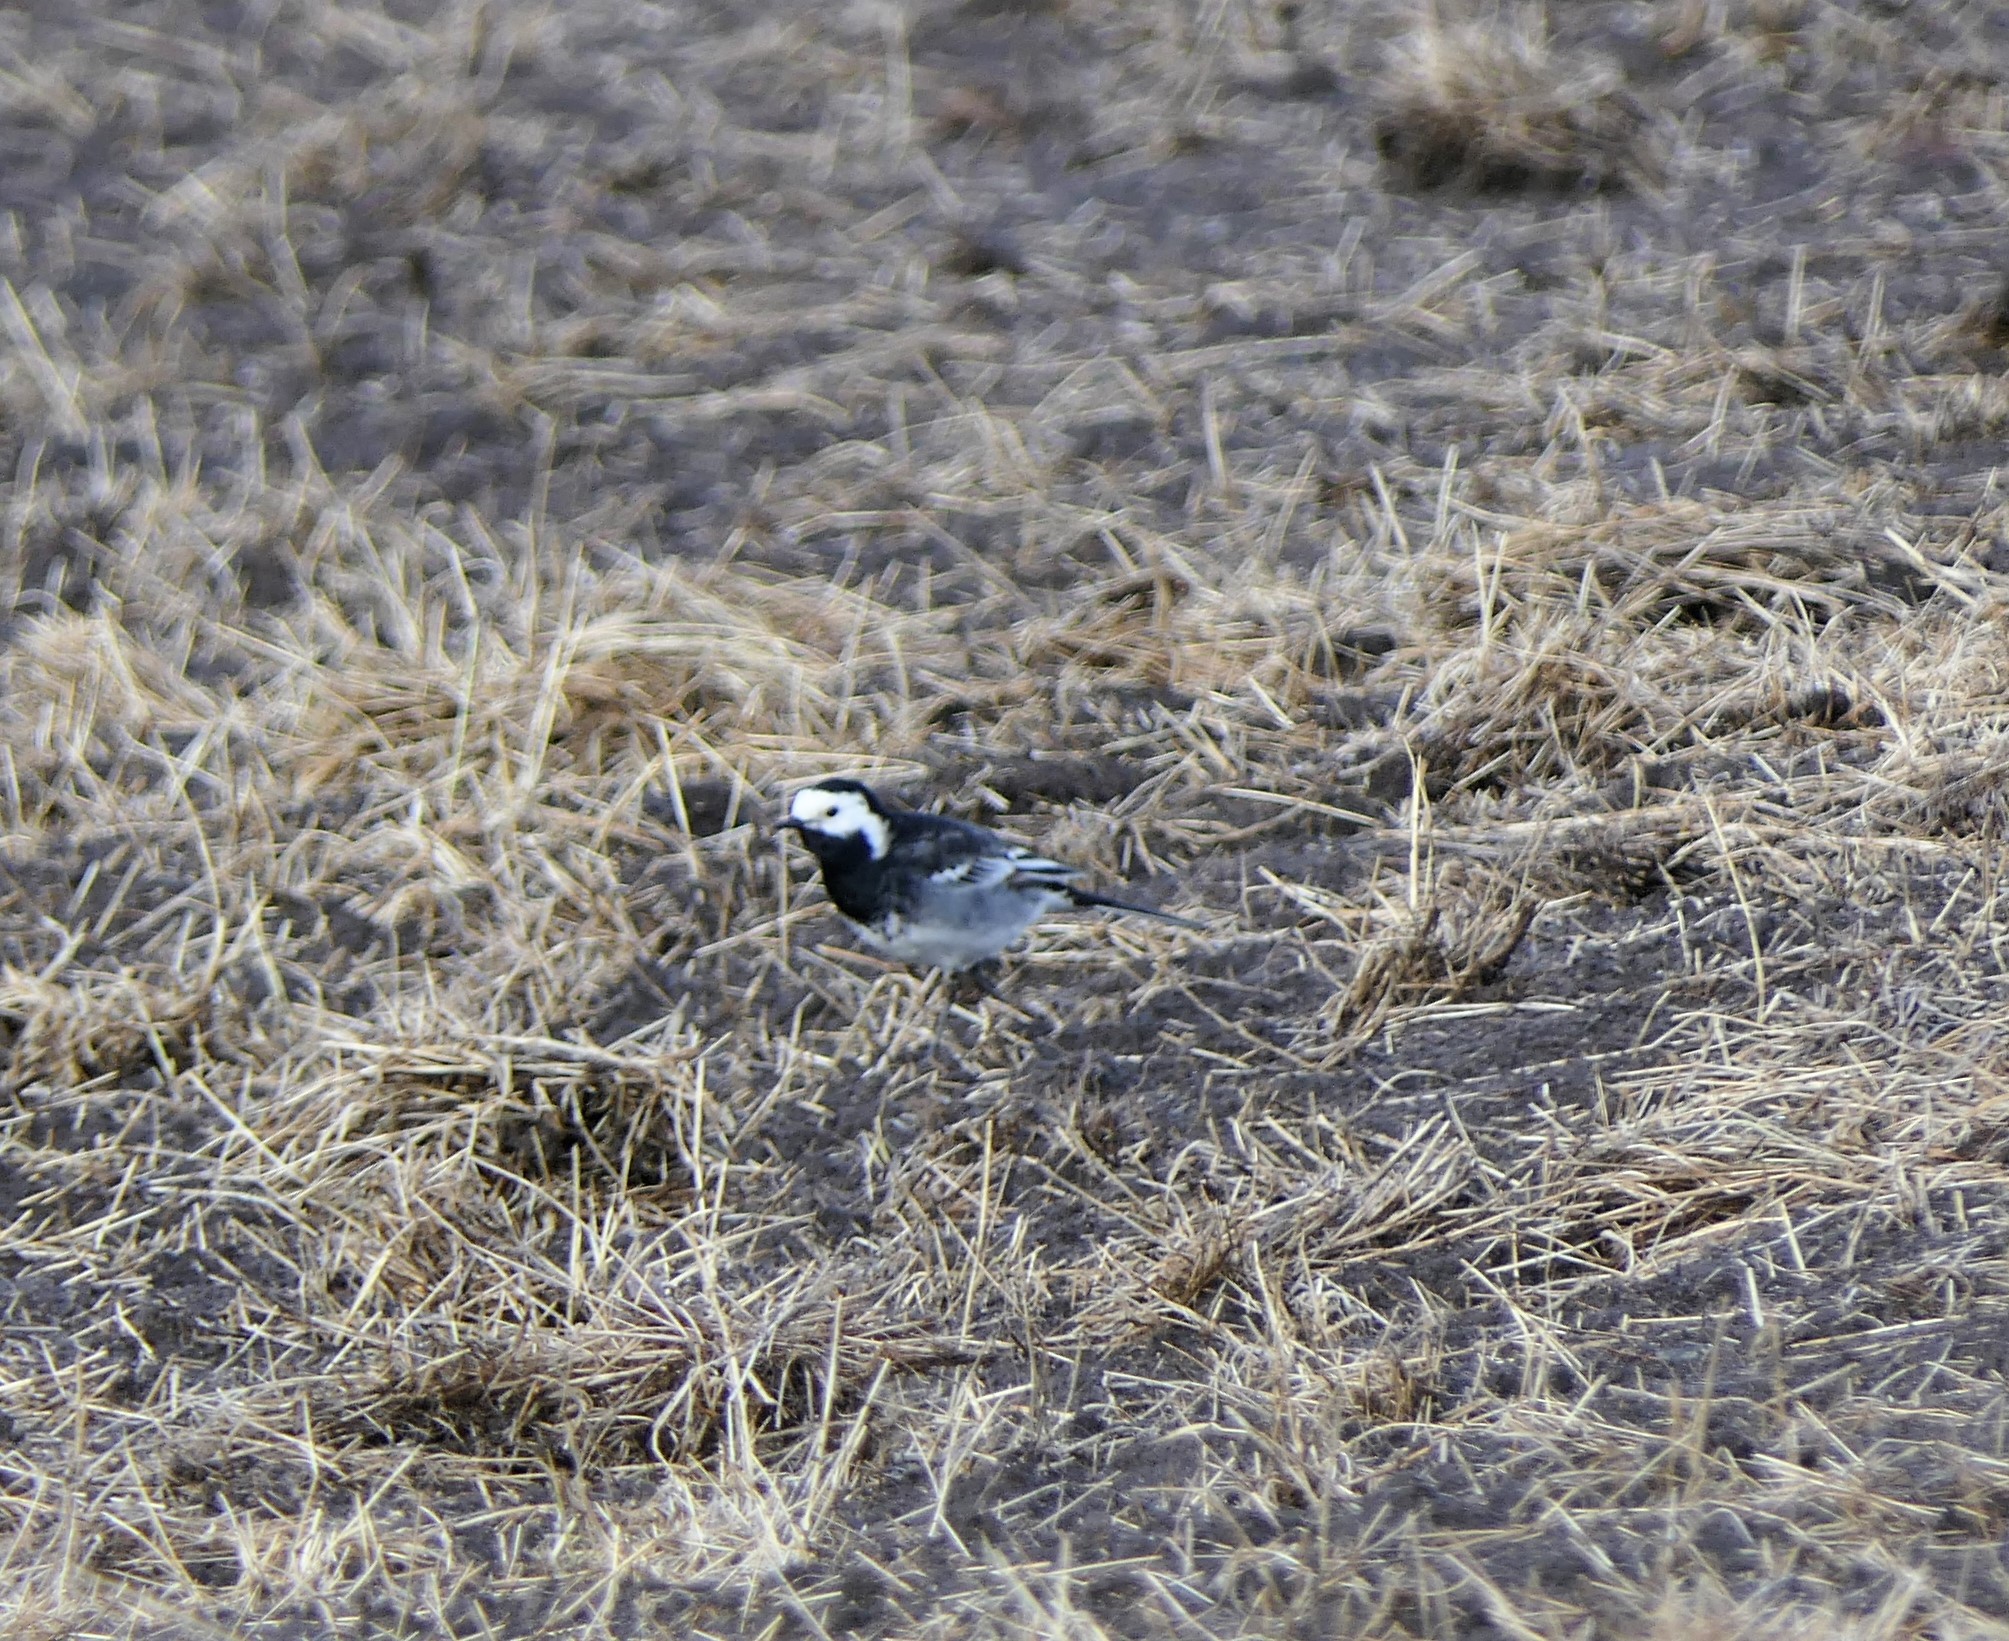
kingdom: Animalia
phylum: Chordata
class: Aves
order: Passeriformes
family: Motacillidae
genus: Motacilla
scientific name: Motacilla alba
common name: White wagtail
